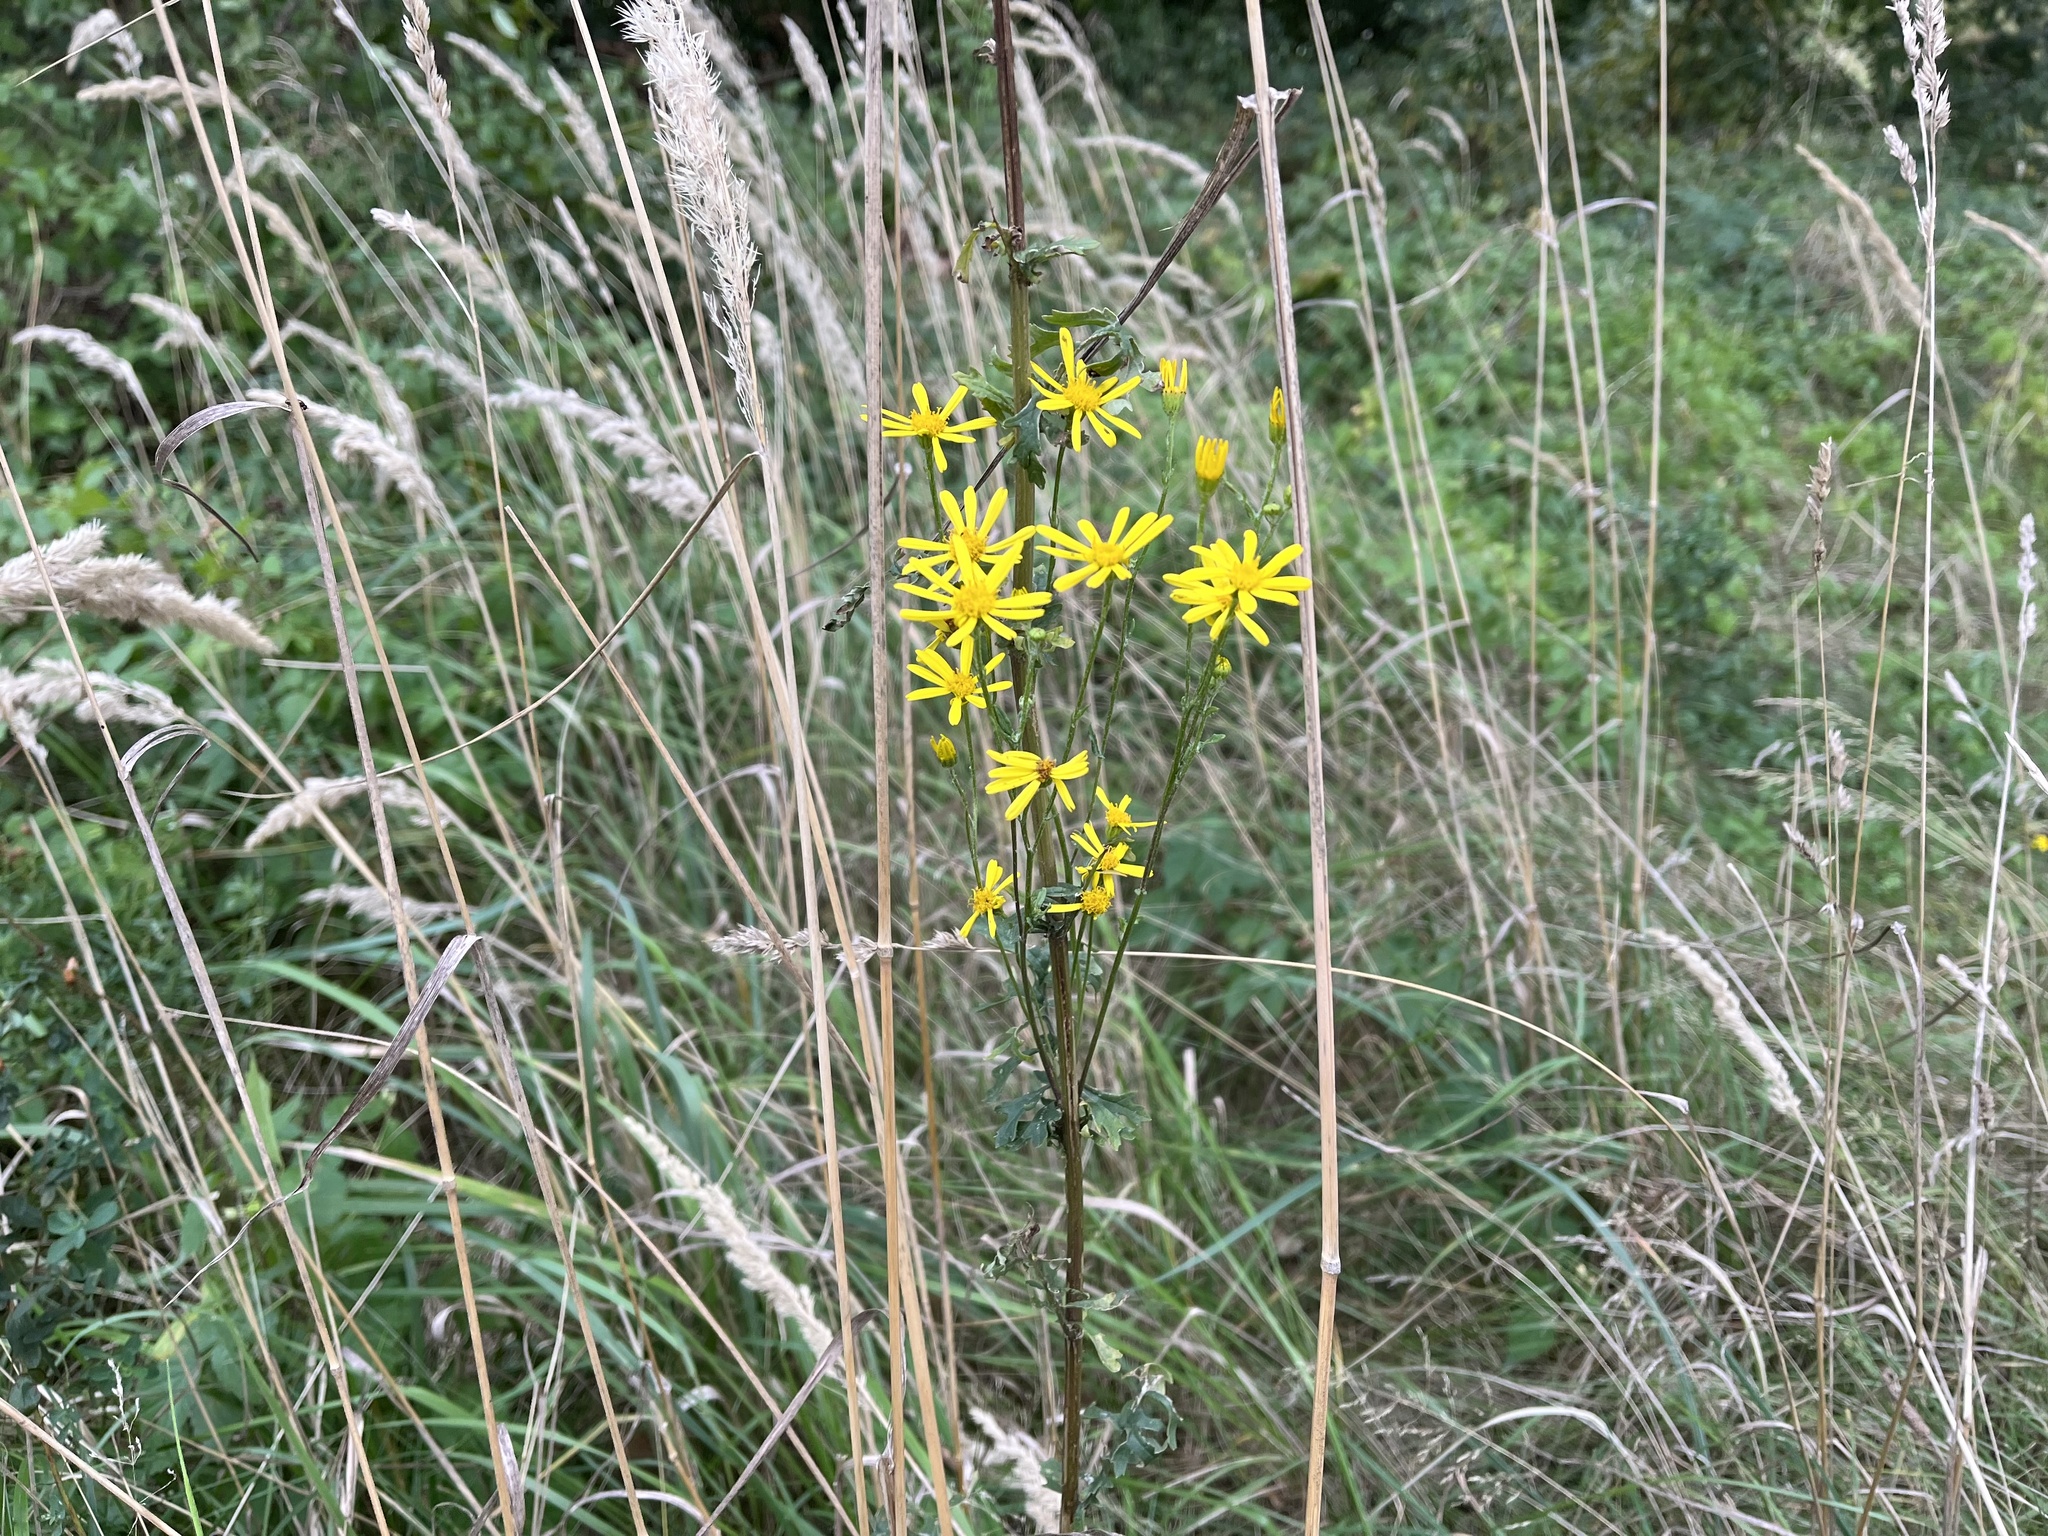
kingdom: Plantae
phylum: Tracheophyta
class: Magnoliopsida
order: Asterales
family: Asteraceae
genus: Jacobaea
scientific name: Jacobaea vulgaris
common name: Stinking willie
